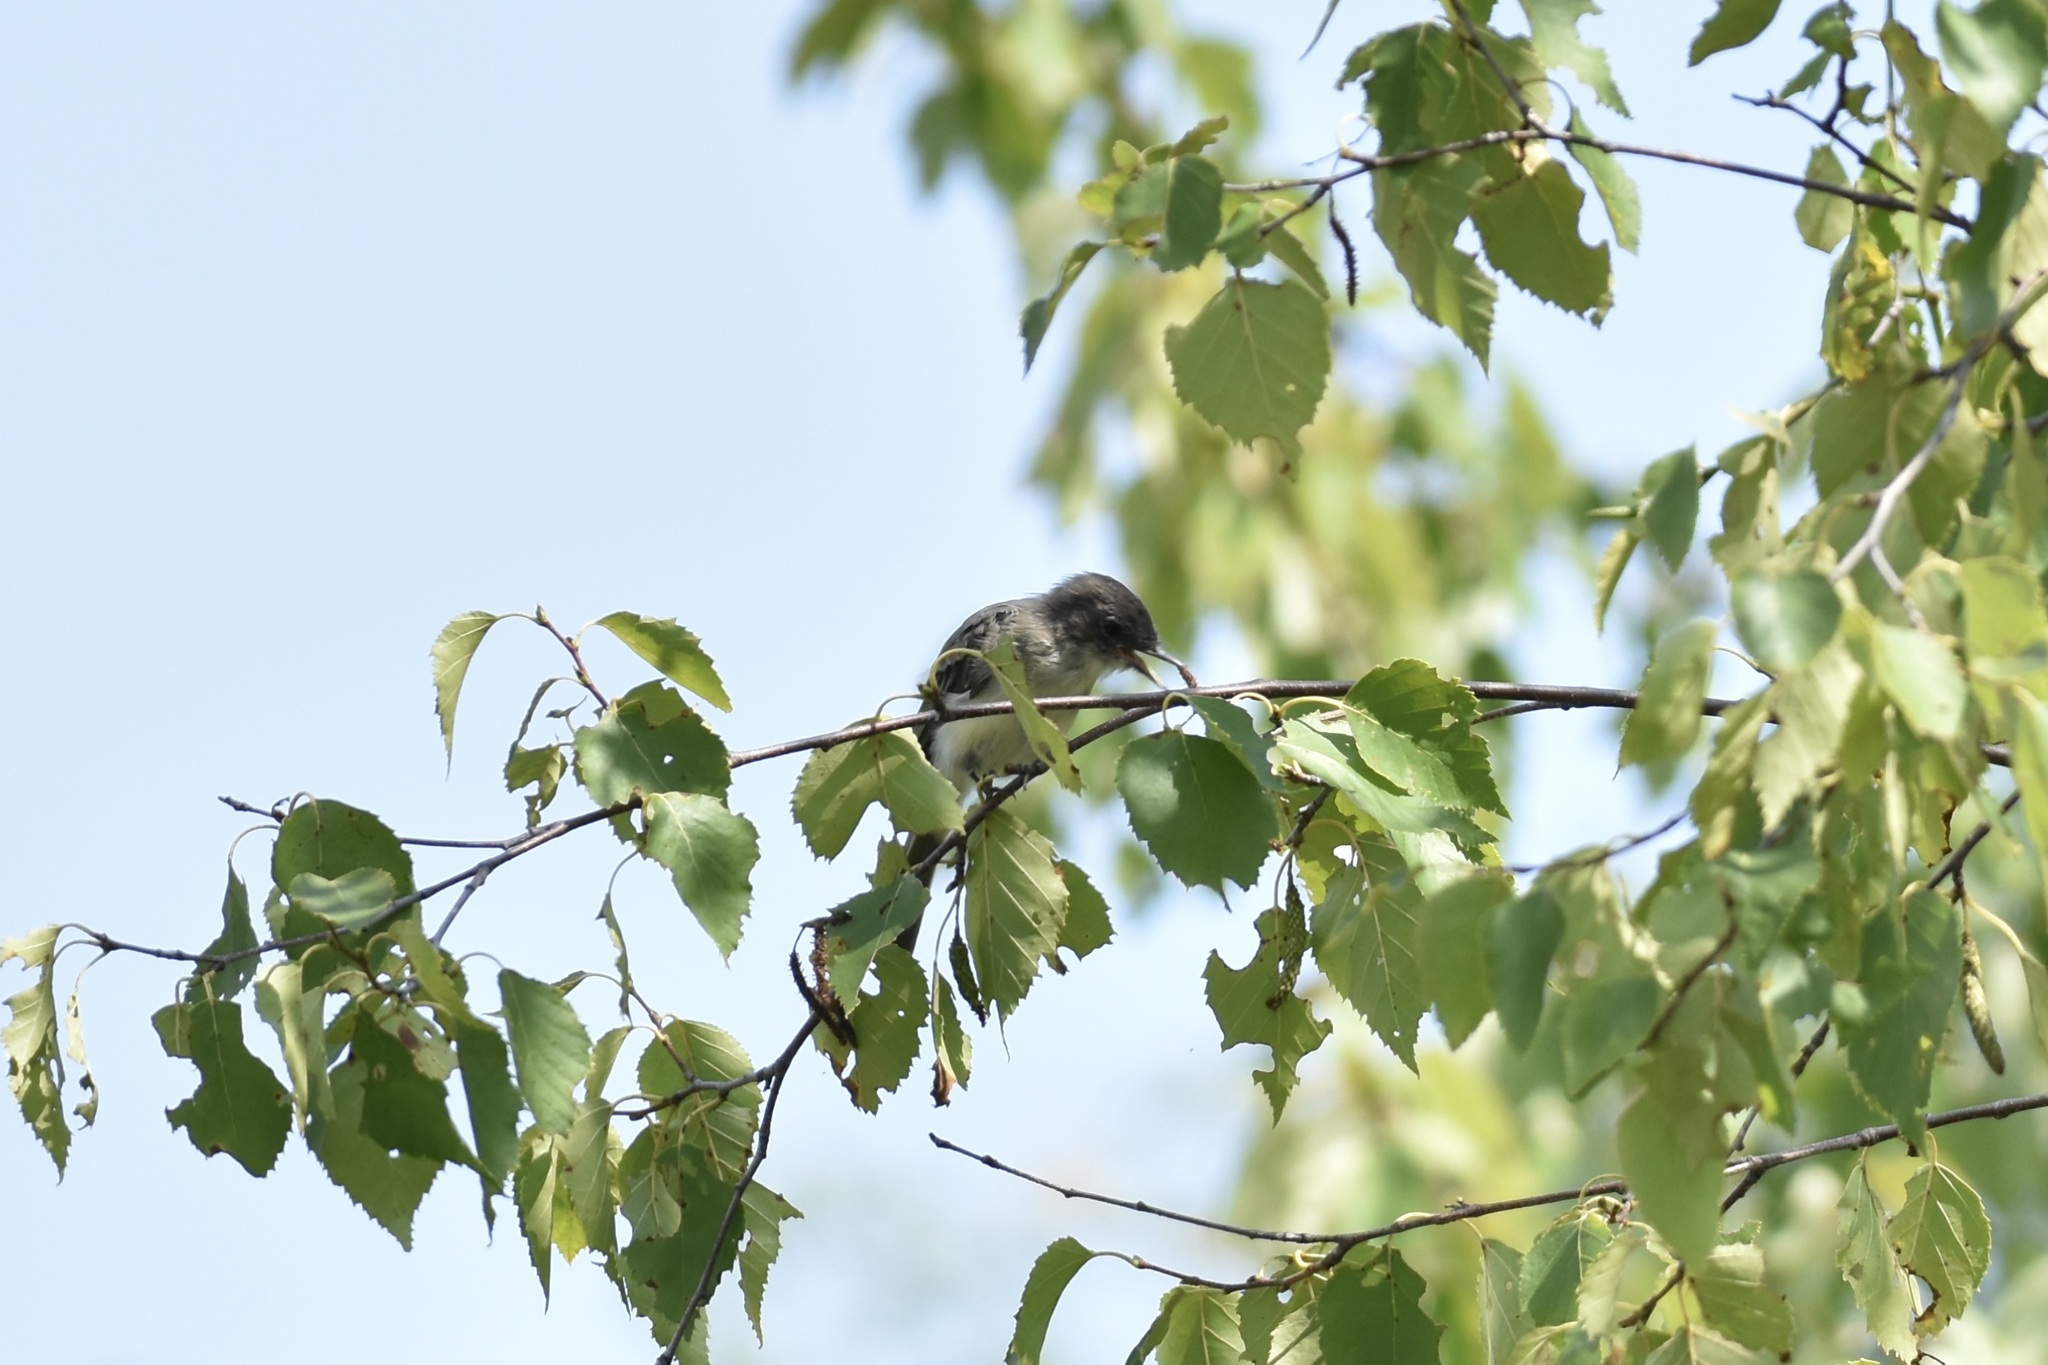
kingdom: Animalia
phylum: Chordata
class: Aves
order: Passeriformes
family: Tyrannidae
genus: Sayornis
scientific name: Sayornis phoebe
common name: Eastern phoebe
